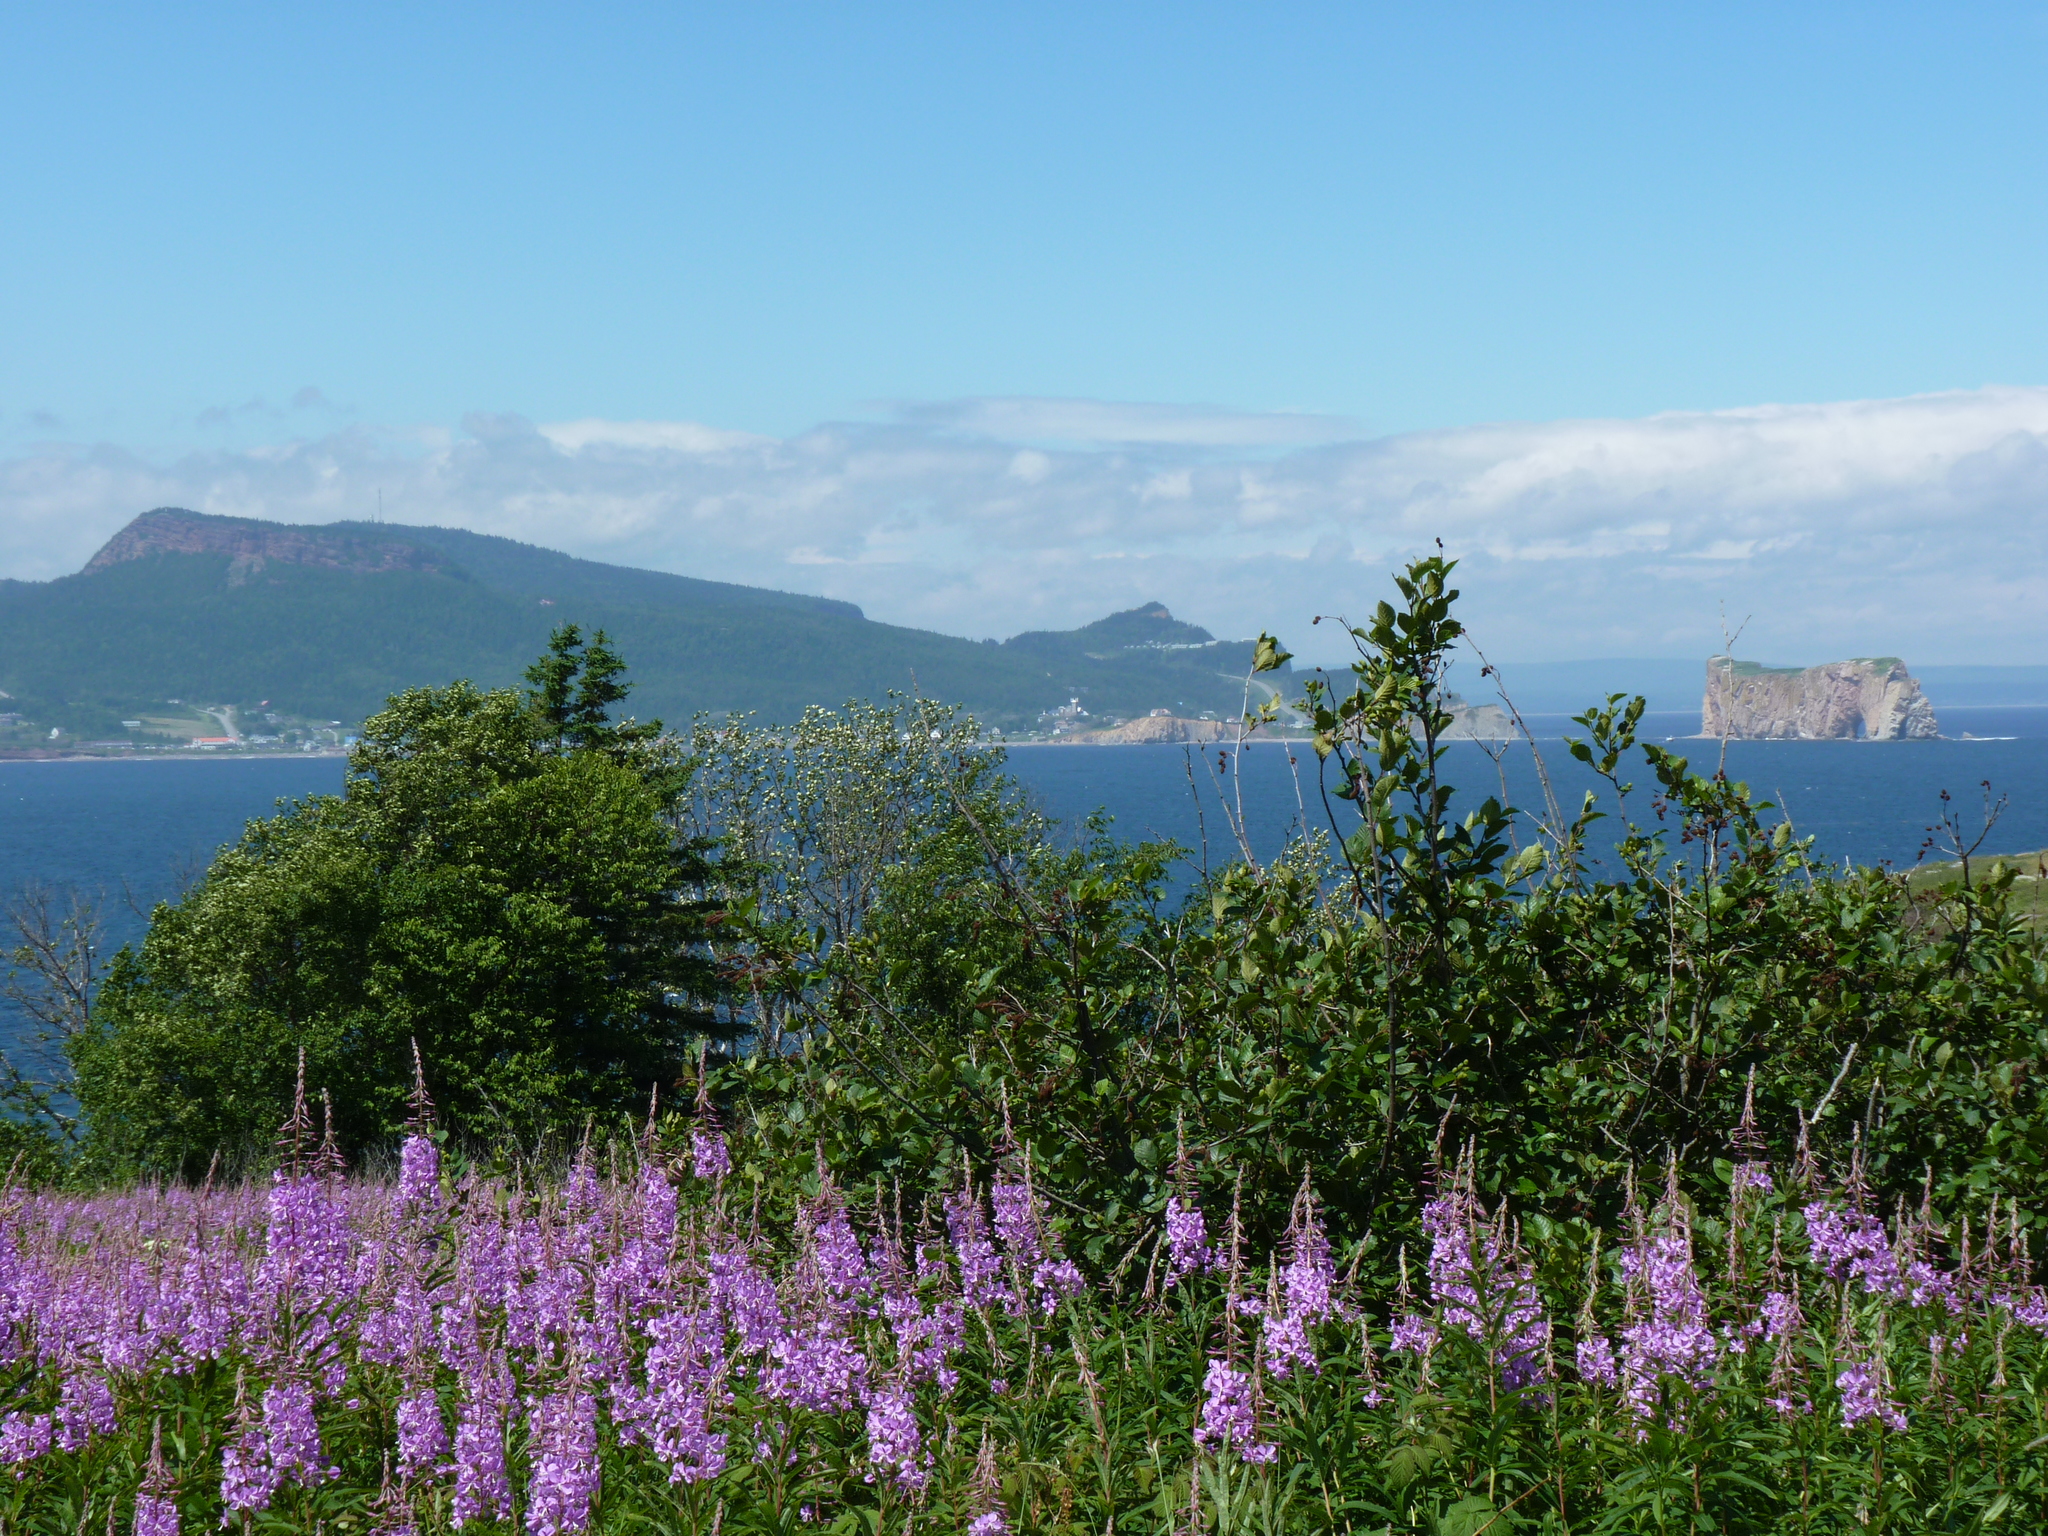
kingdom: Plantae
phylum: Tracheophyta
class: Magnoliopsida
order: Myrtales
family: Onagraceae
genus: Chamaenerion
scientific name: Chamaenerion angustifolium
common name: Fireweed
